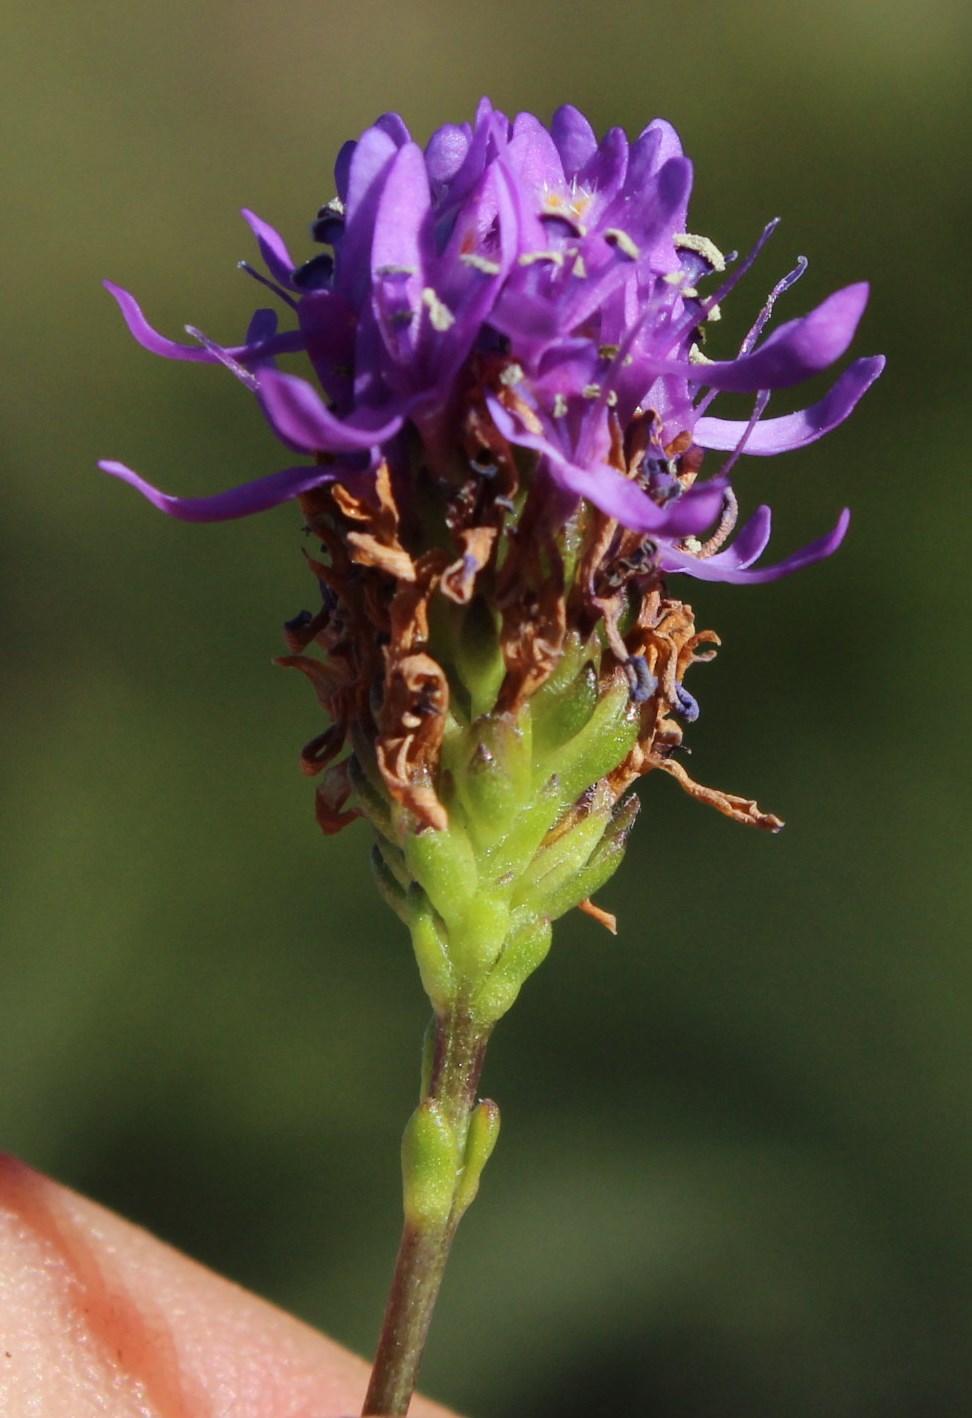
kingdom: Plantae
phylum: Tracheophyta
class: Magnoliopsida
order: Lamiales
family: Scrophulariaceae
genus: Pseudoselago
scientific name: Pseudoselago similis
